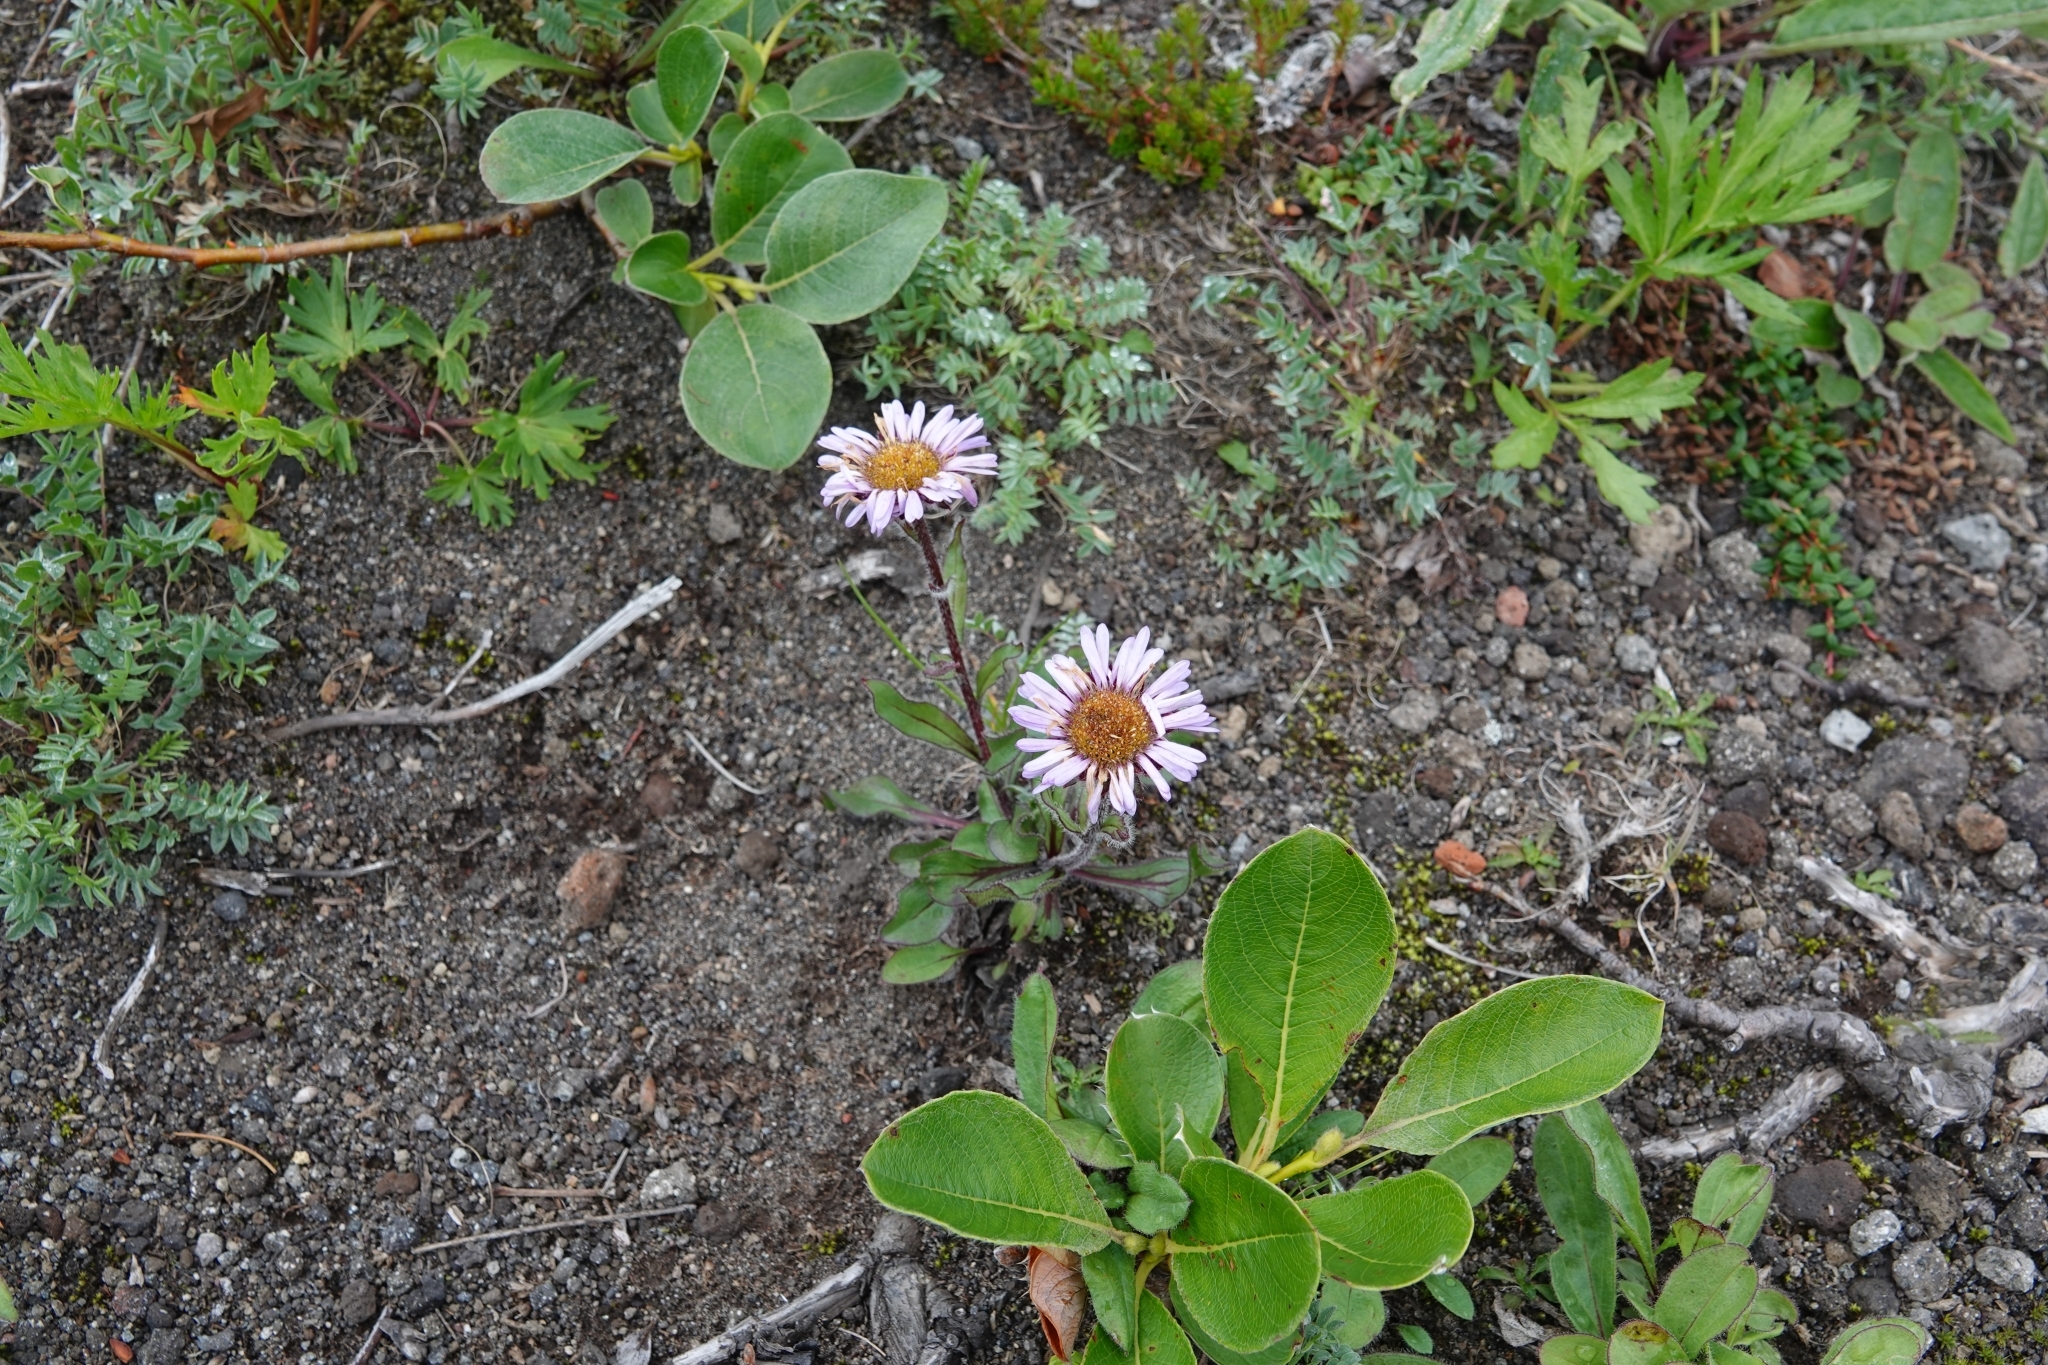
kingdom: Plantae
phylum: Tracheophyta
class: Magnoliopsida
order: Asterales
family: Asteraceae
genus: Eurybia
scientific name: Eurybia sibirica
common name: Arctic aster
